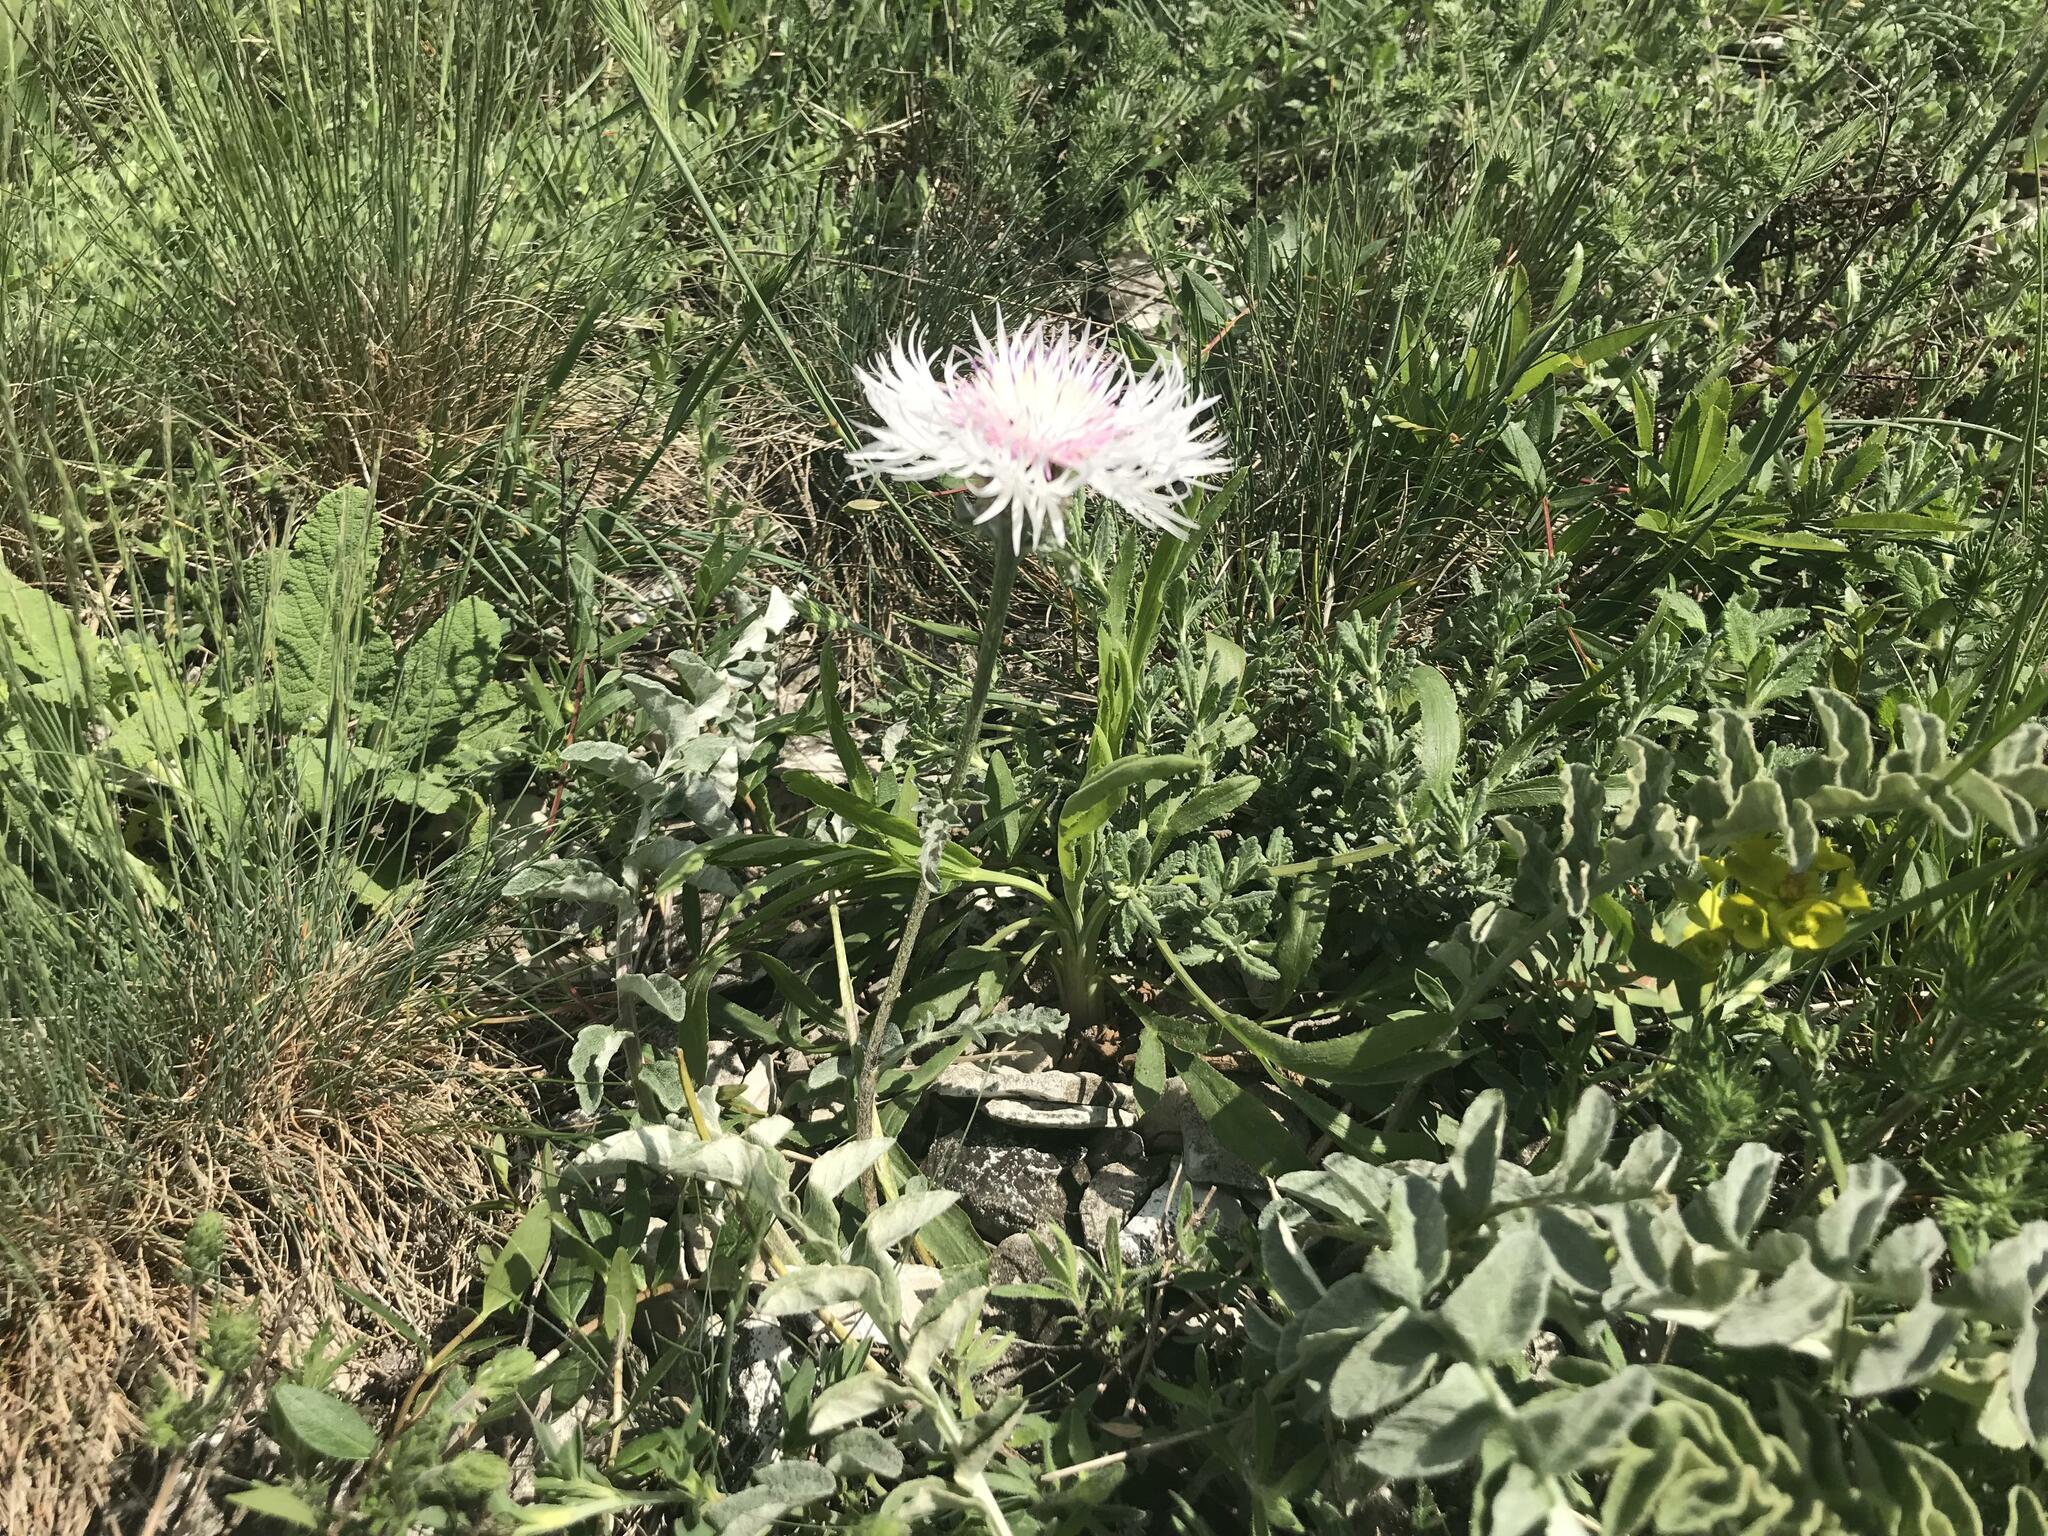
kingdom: Plantae
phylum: Tracheophyta
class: Magnoliopsida
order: Asterales
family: Asteraceae
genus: Psephellus
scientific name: Psephellus declinatus
